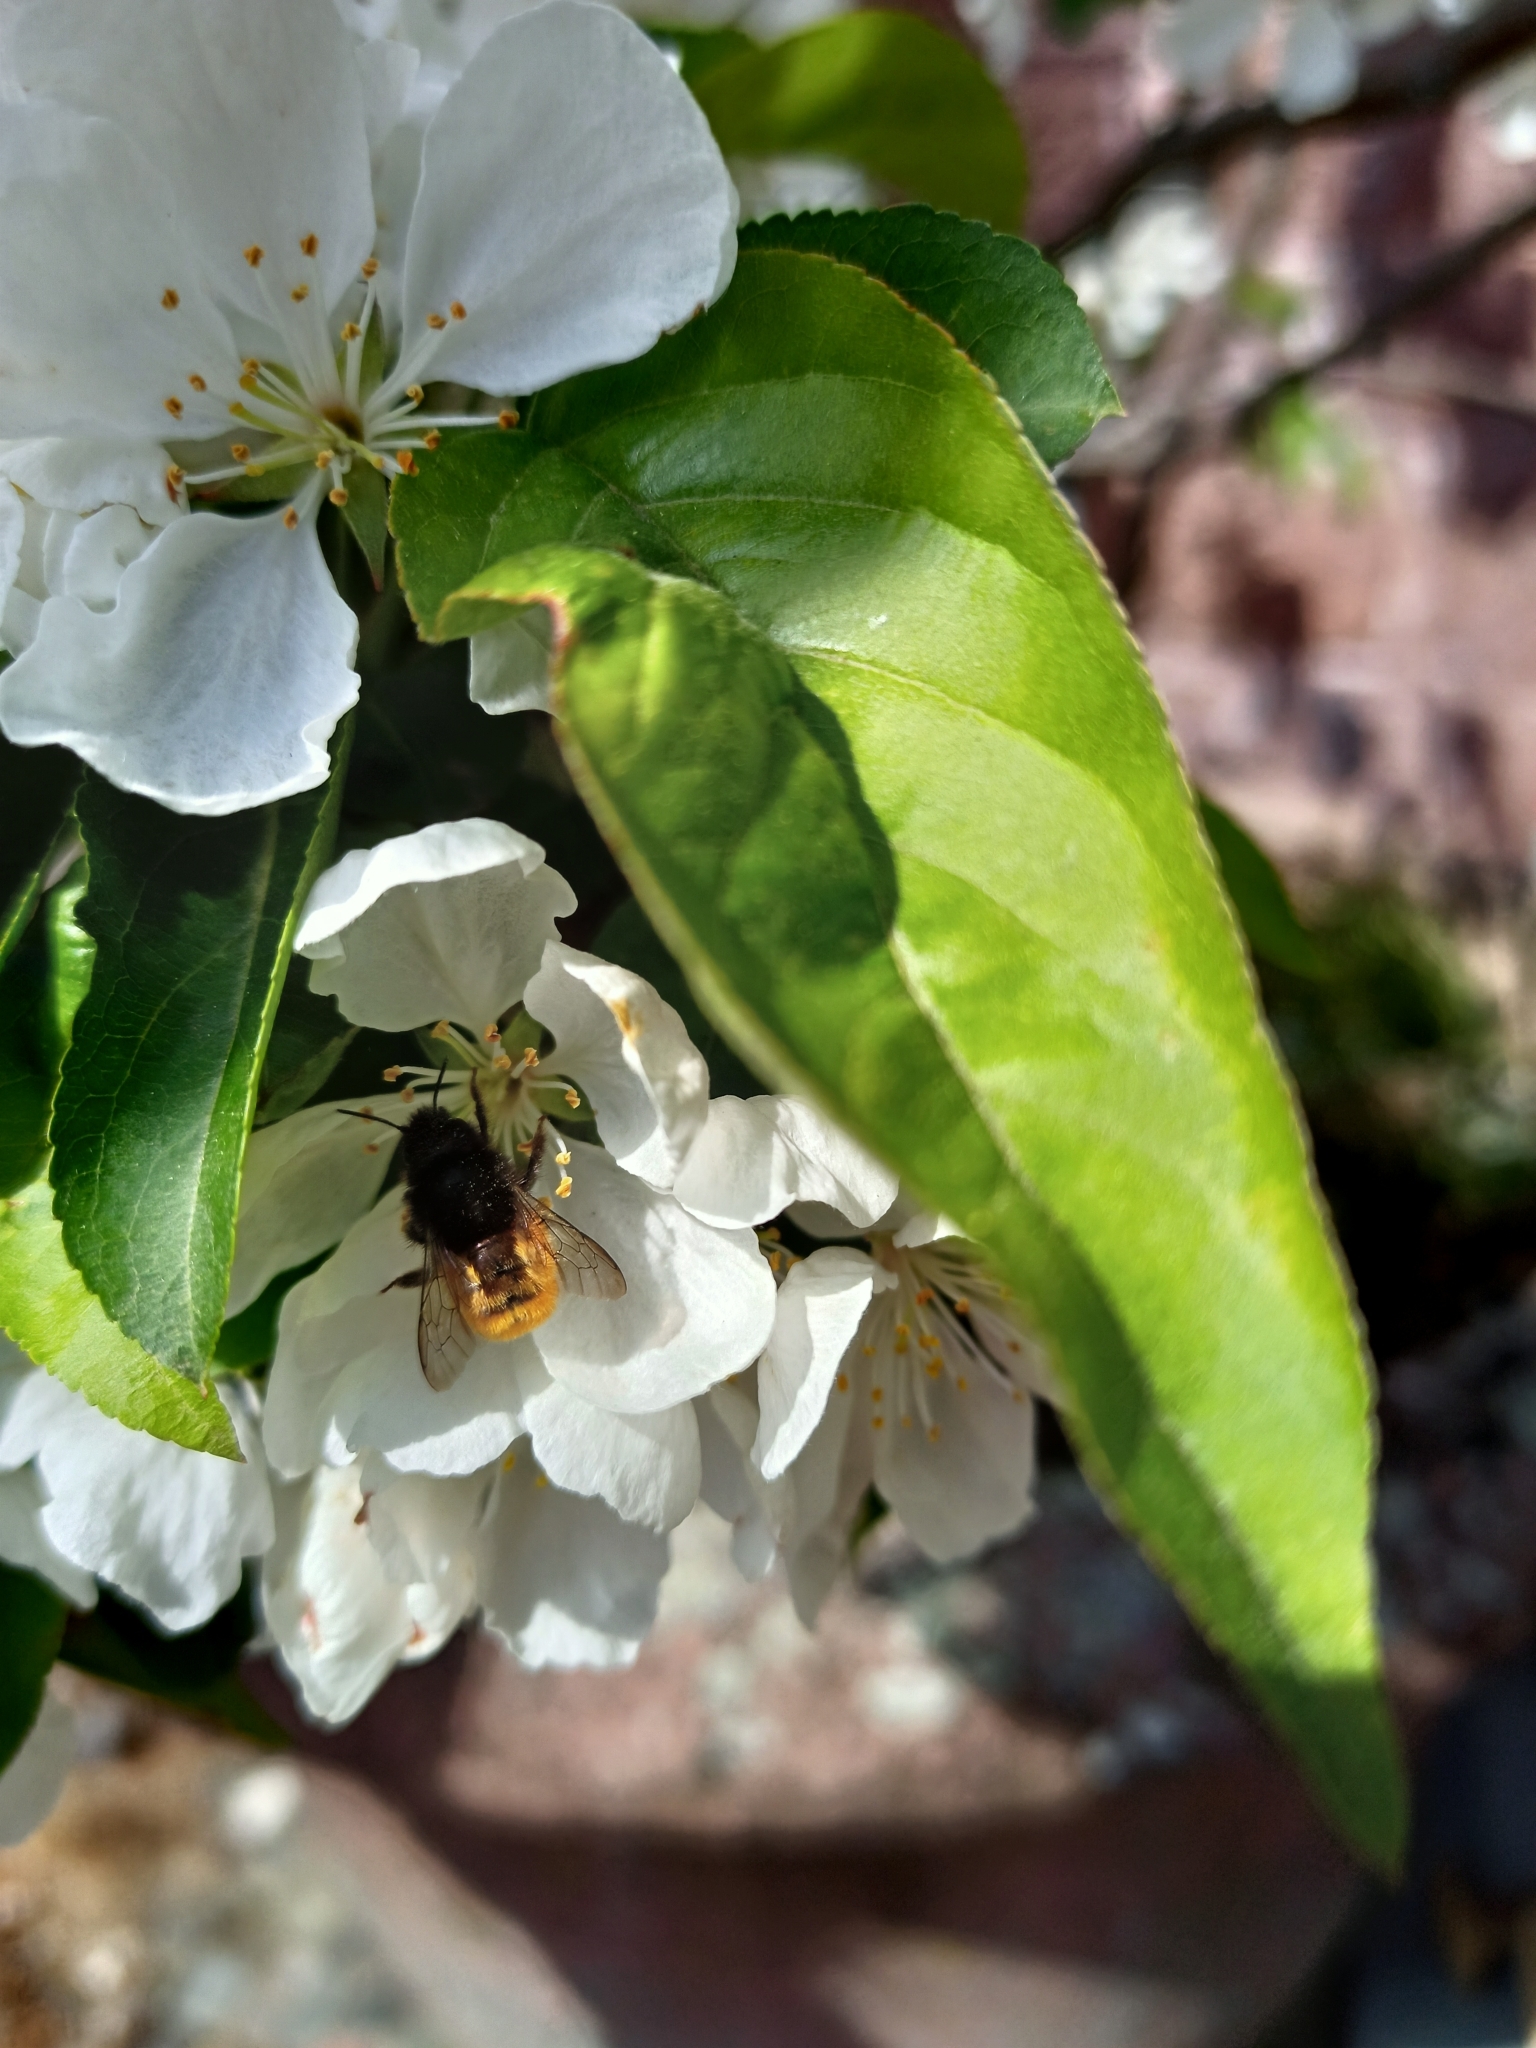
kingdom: Animalia
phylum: Arthropoda
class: Insecta
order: Hymenoptera
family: Megachilidae
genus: Osmia
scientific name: Osmia cornuta
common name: Mason bee
